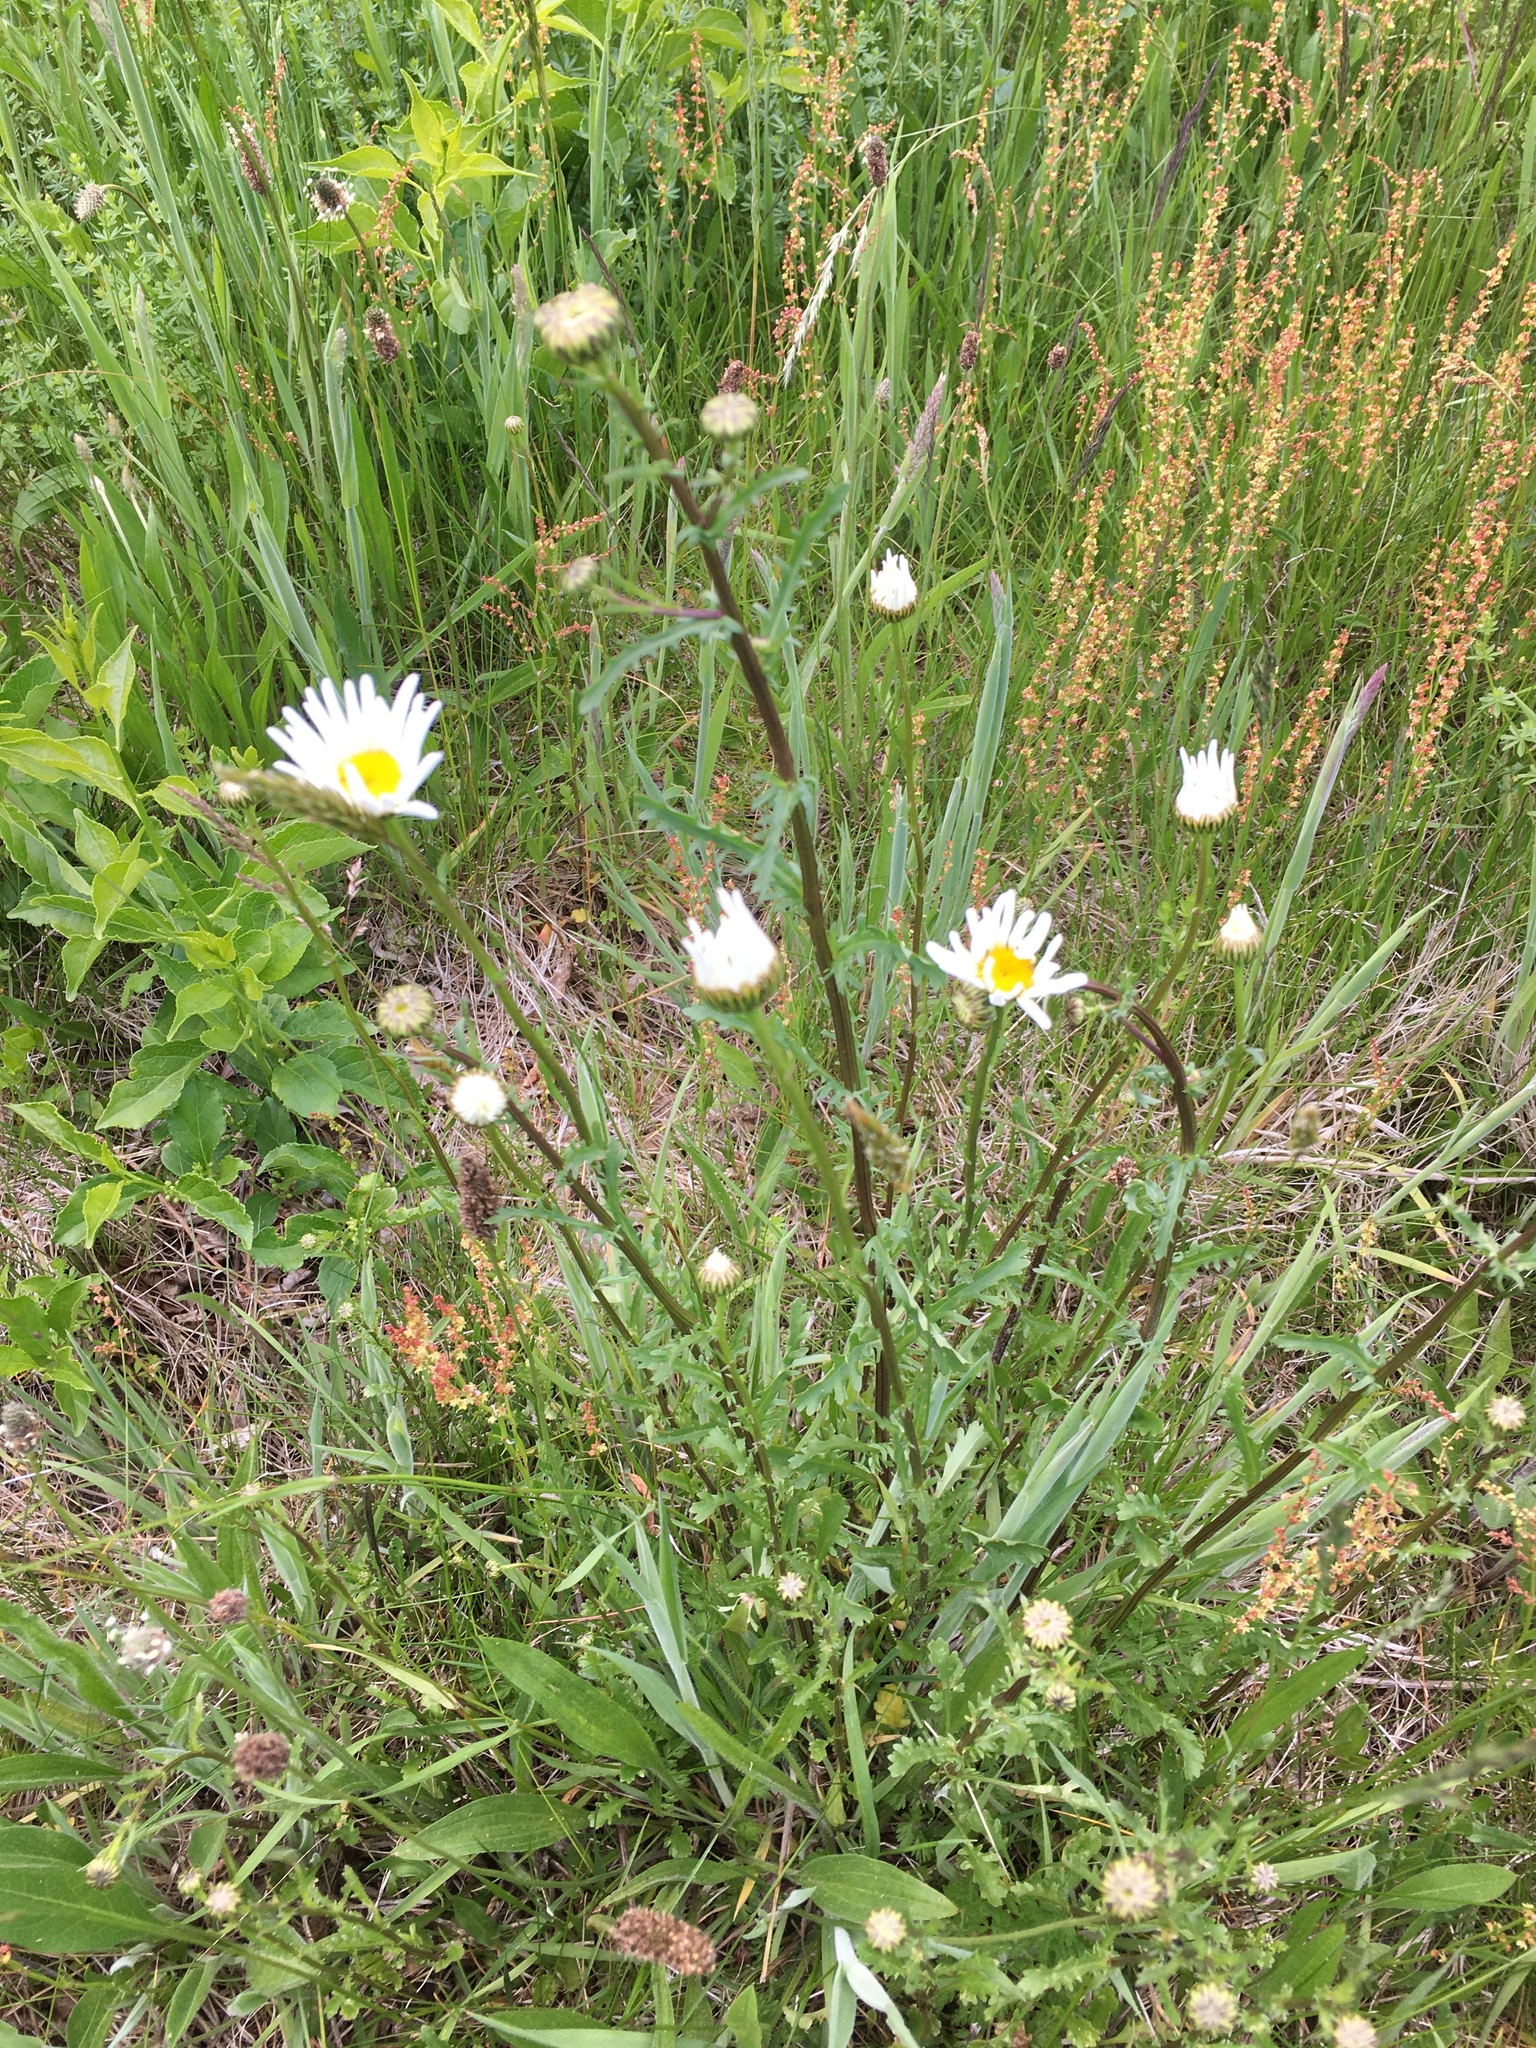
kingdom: Plantae
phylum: Tracheophyta
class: Magnoliopsida
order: Asterales
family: Asteraceae
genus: Leucanthemum
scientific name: Leucanthemum vulgare
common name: Oxeye daisy
